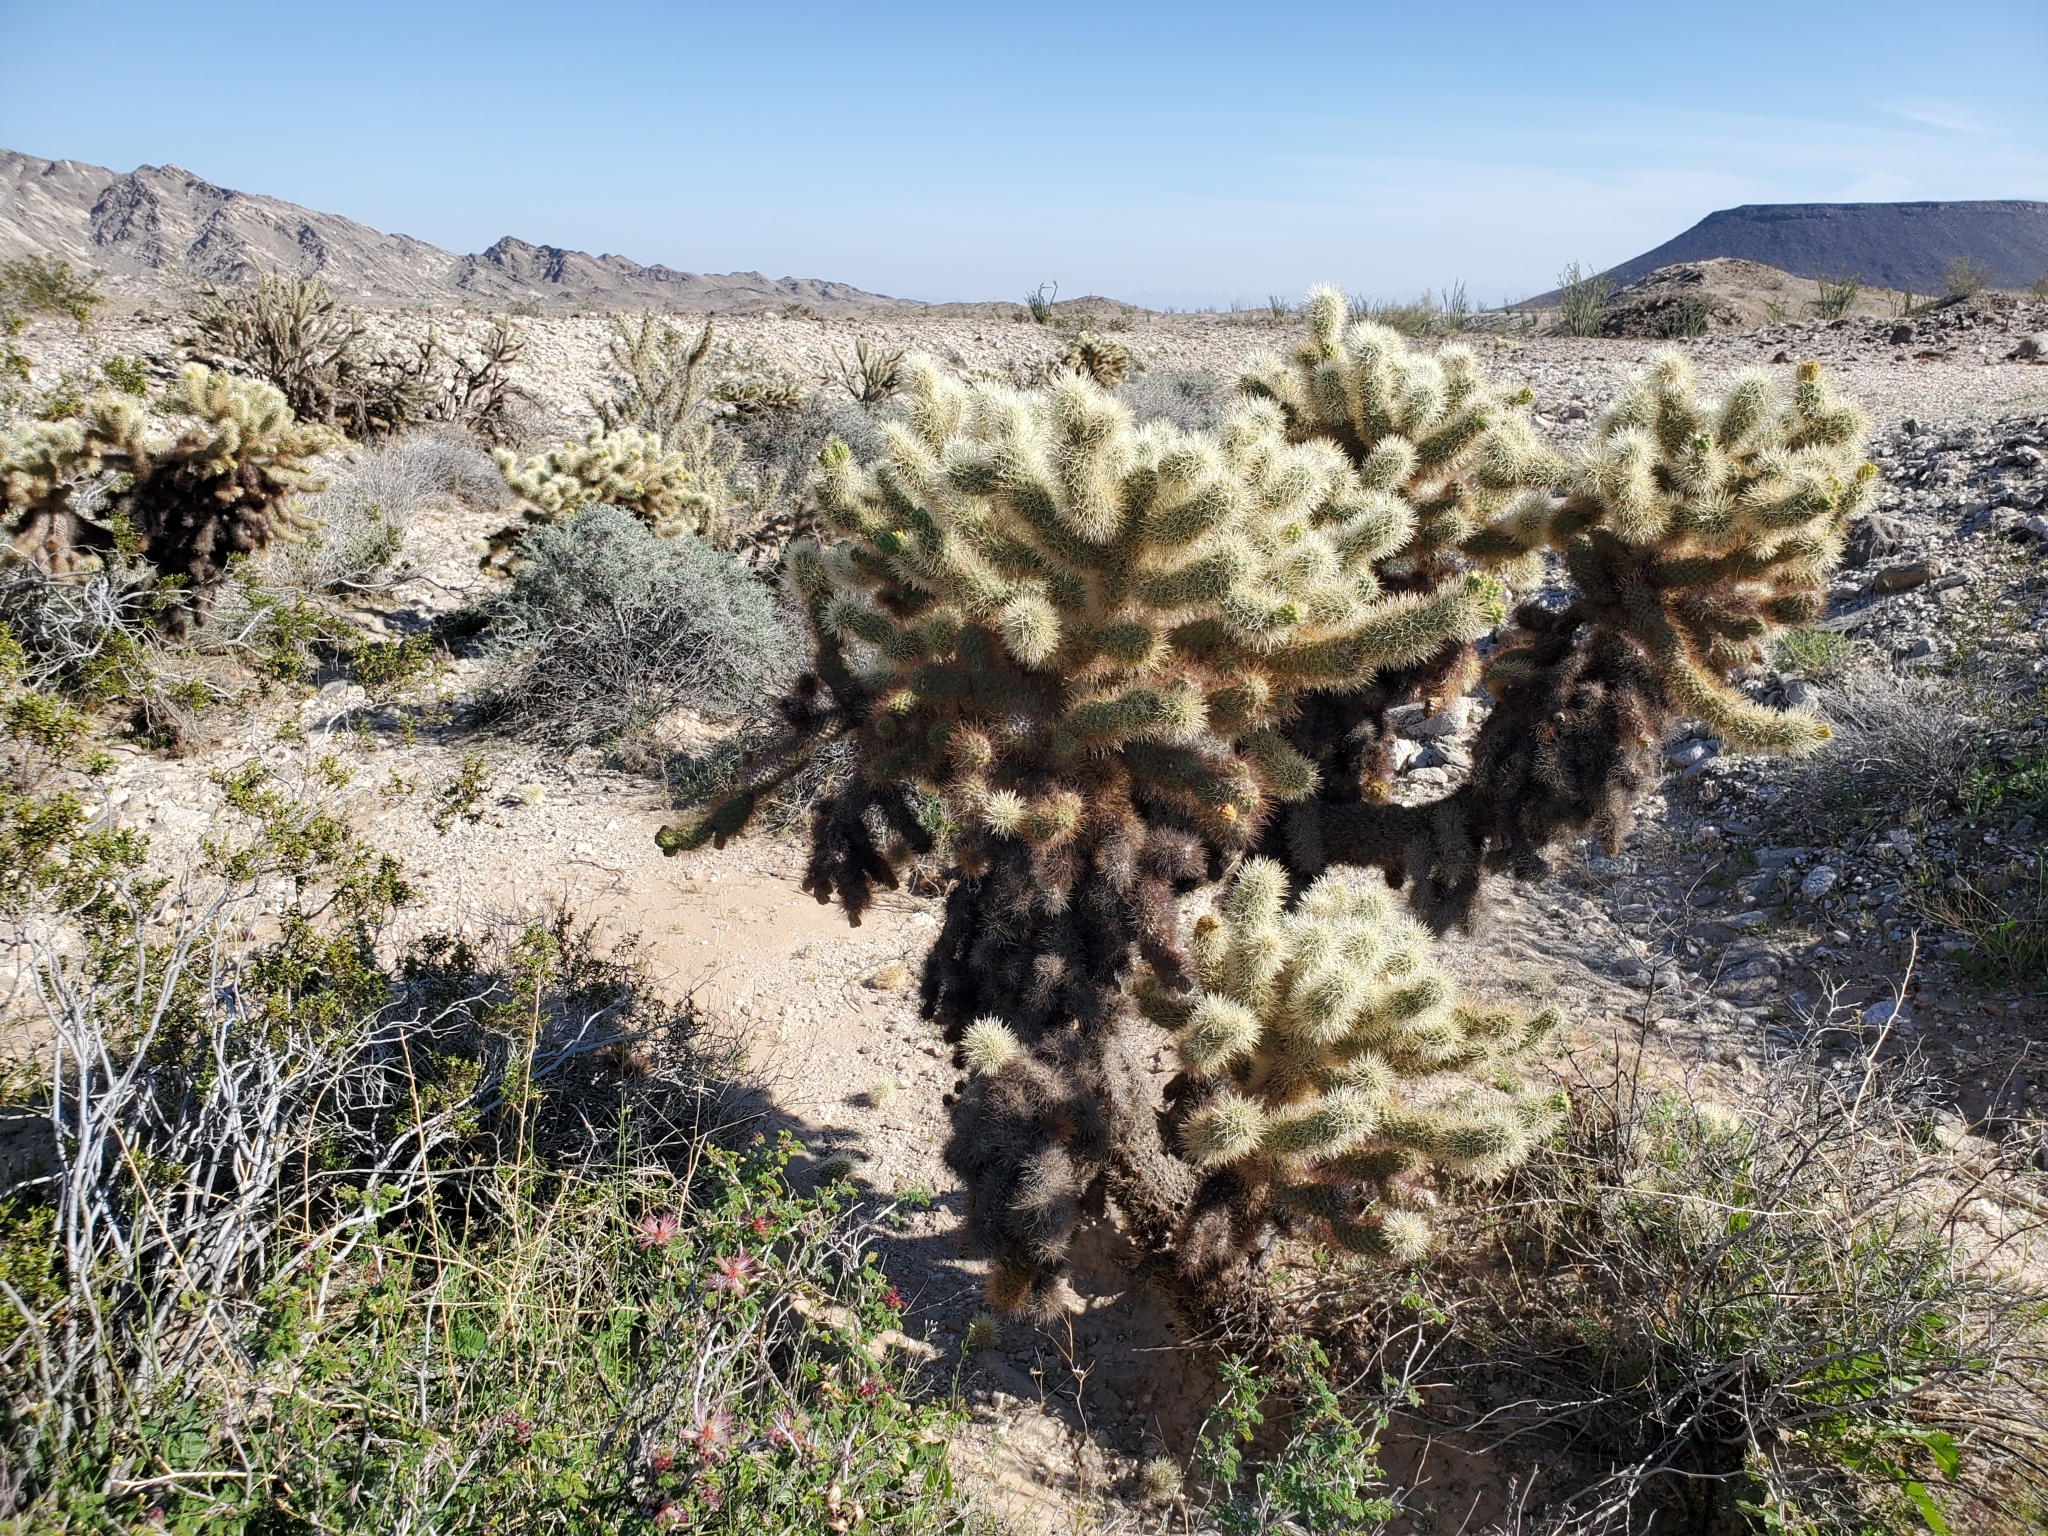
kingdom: Plantae
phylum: Tracheophyta
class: Magnoliopsida
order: Caryophyllales
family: Cactaceae
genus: Cylindropuntia
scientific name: Cylindropuntia fosbergii
